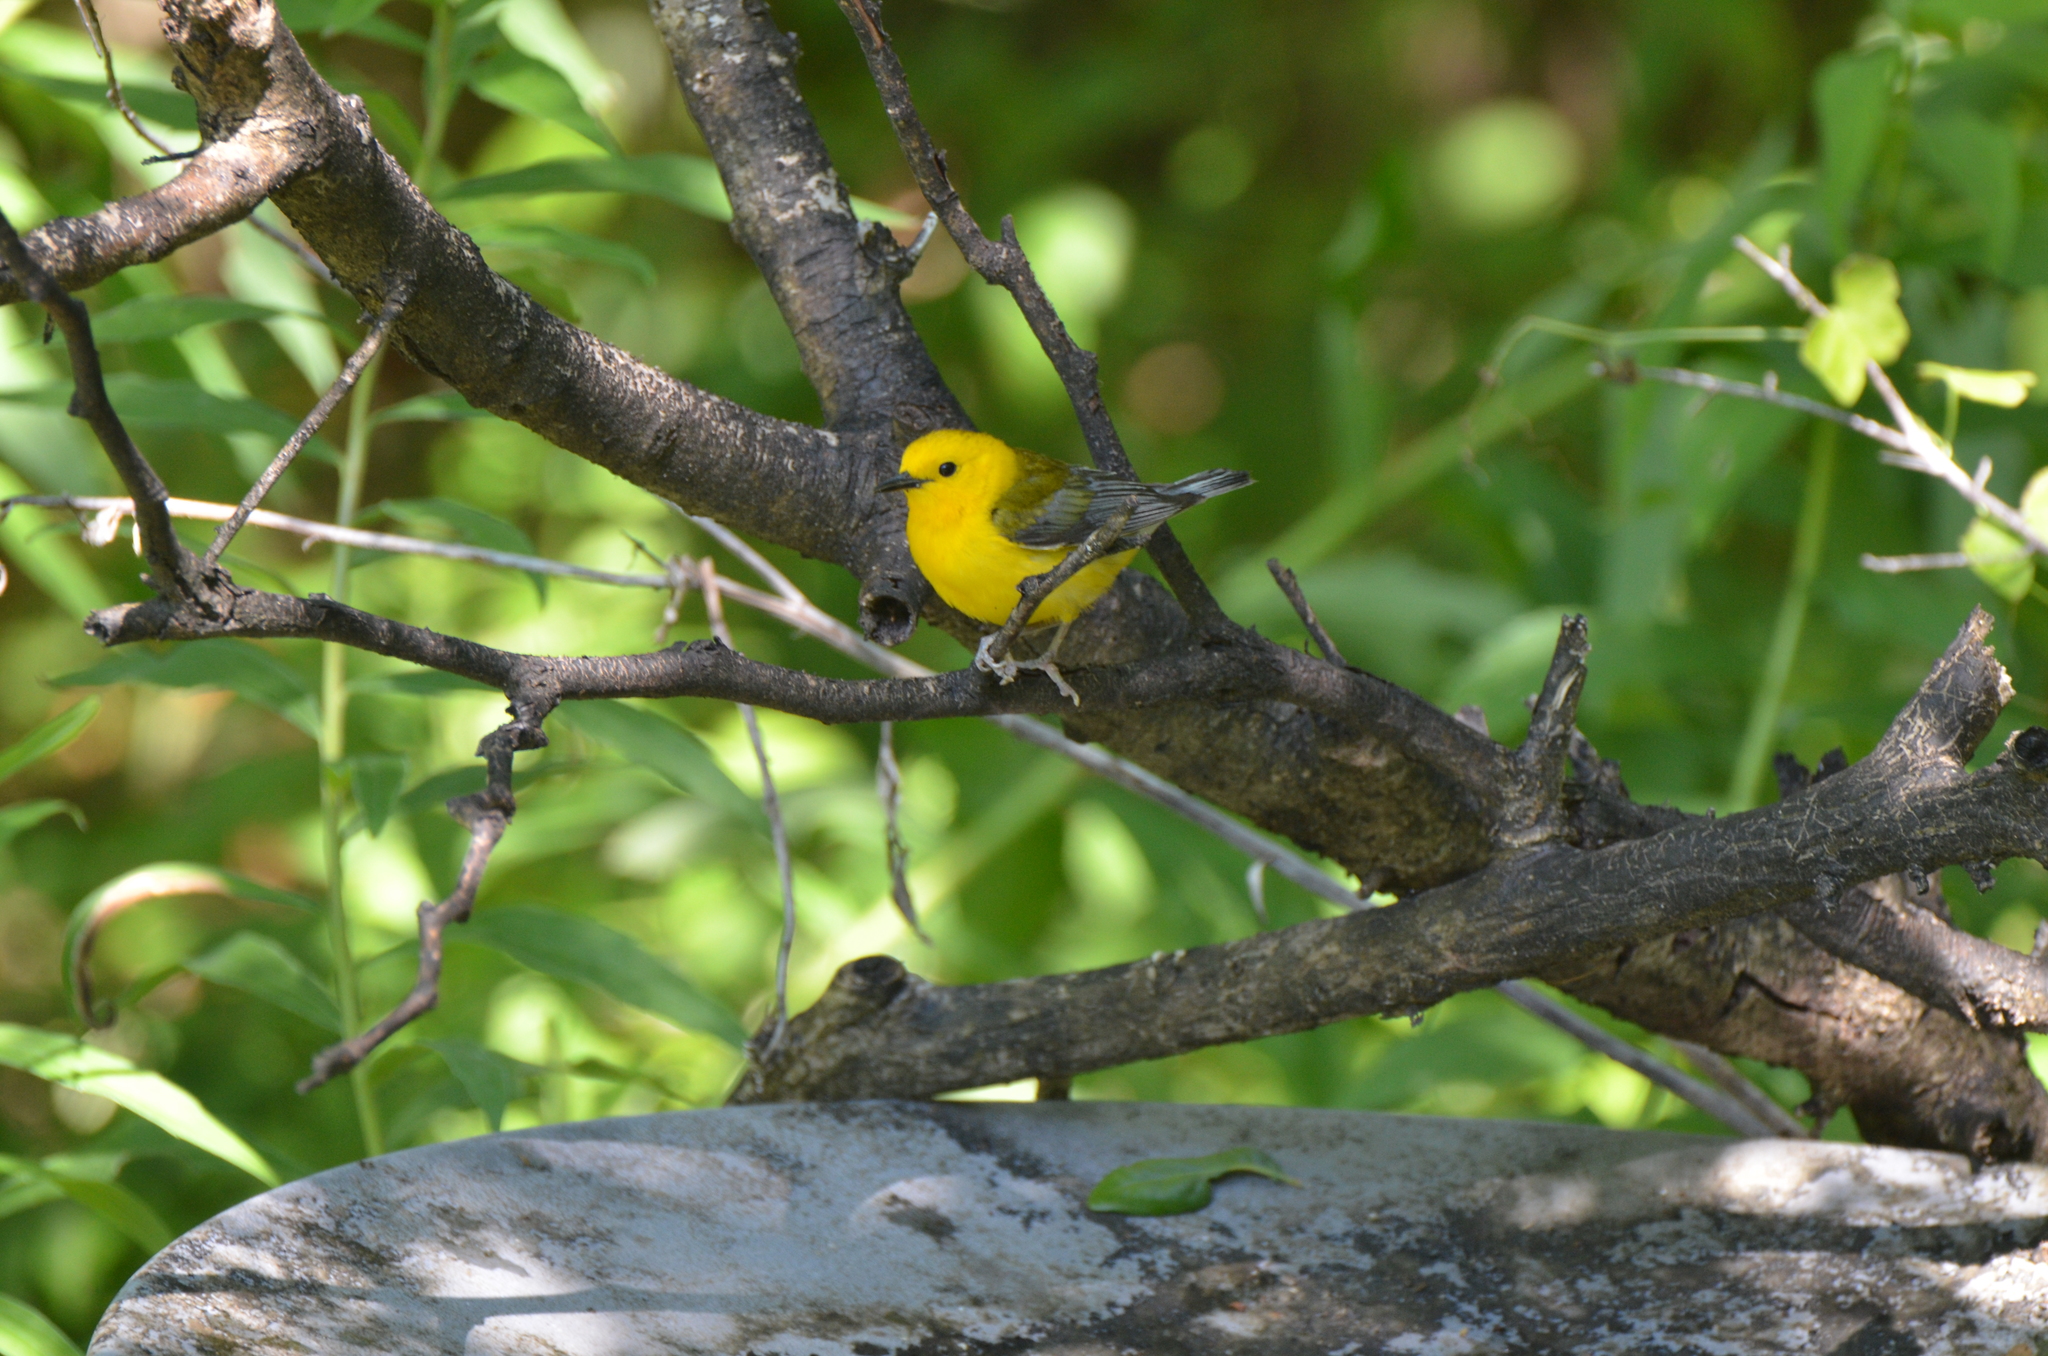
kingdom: Animalia
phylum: Chordata
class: Aves
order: Passeriformes
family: Parulidae
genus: Protonotaria
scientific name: Protonotaria citrea
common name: Prothonotary warbler
